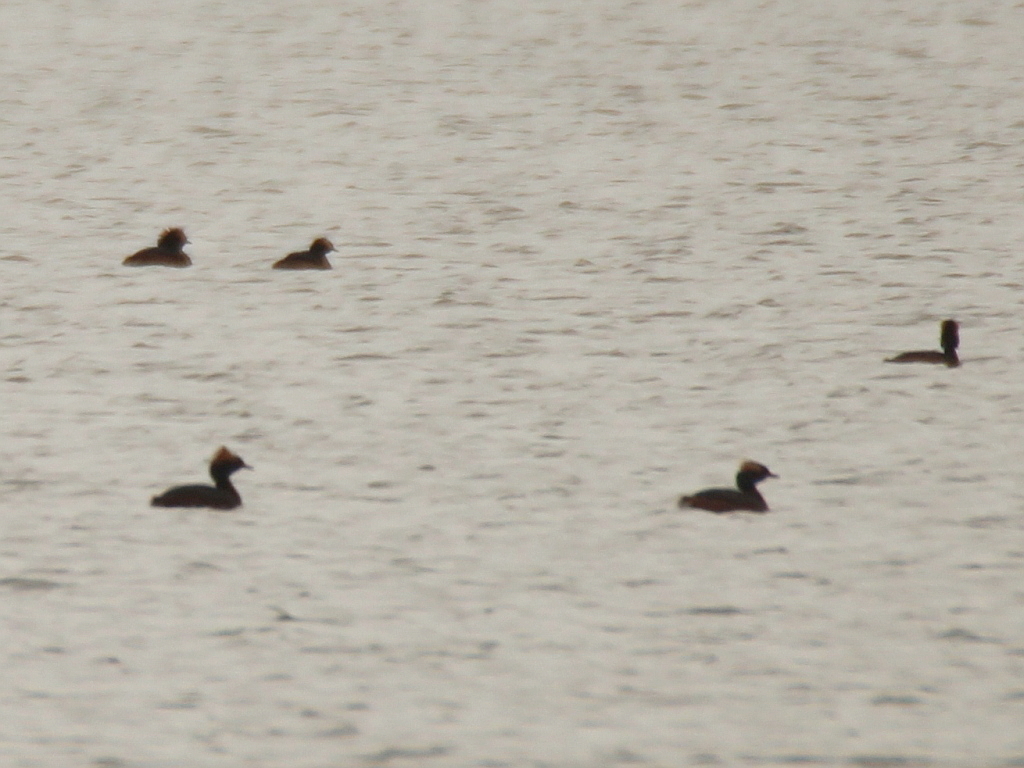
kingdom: Animalia
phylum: Chordata
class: Aves
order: Podicipediformes
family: Podicipedidae
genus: Podiceps
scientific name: Podiceps auritus
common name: Horned grebe
